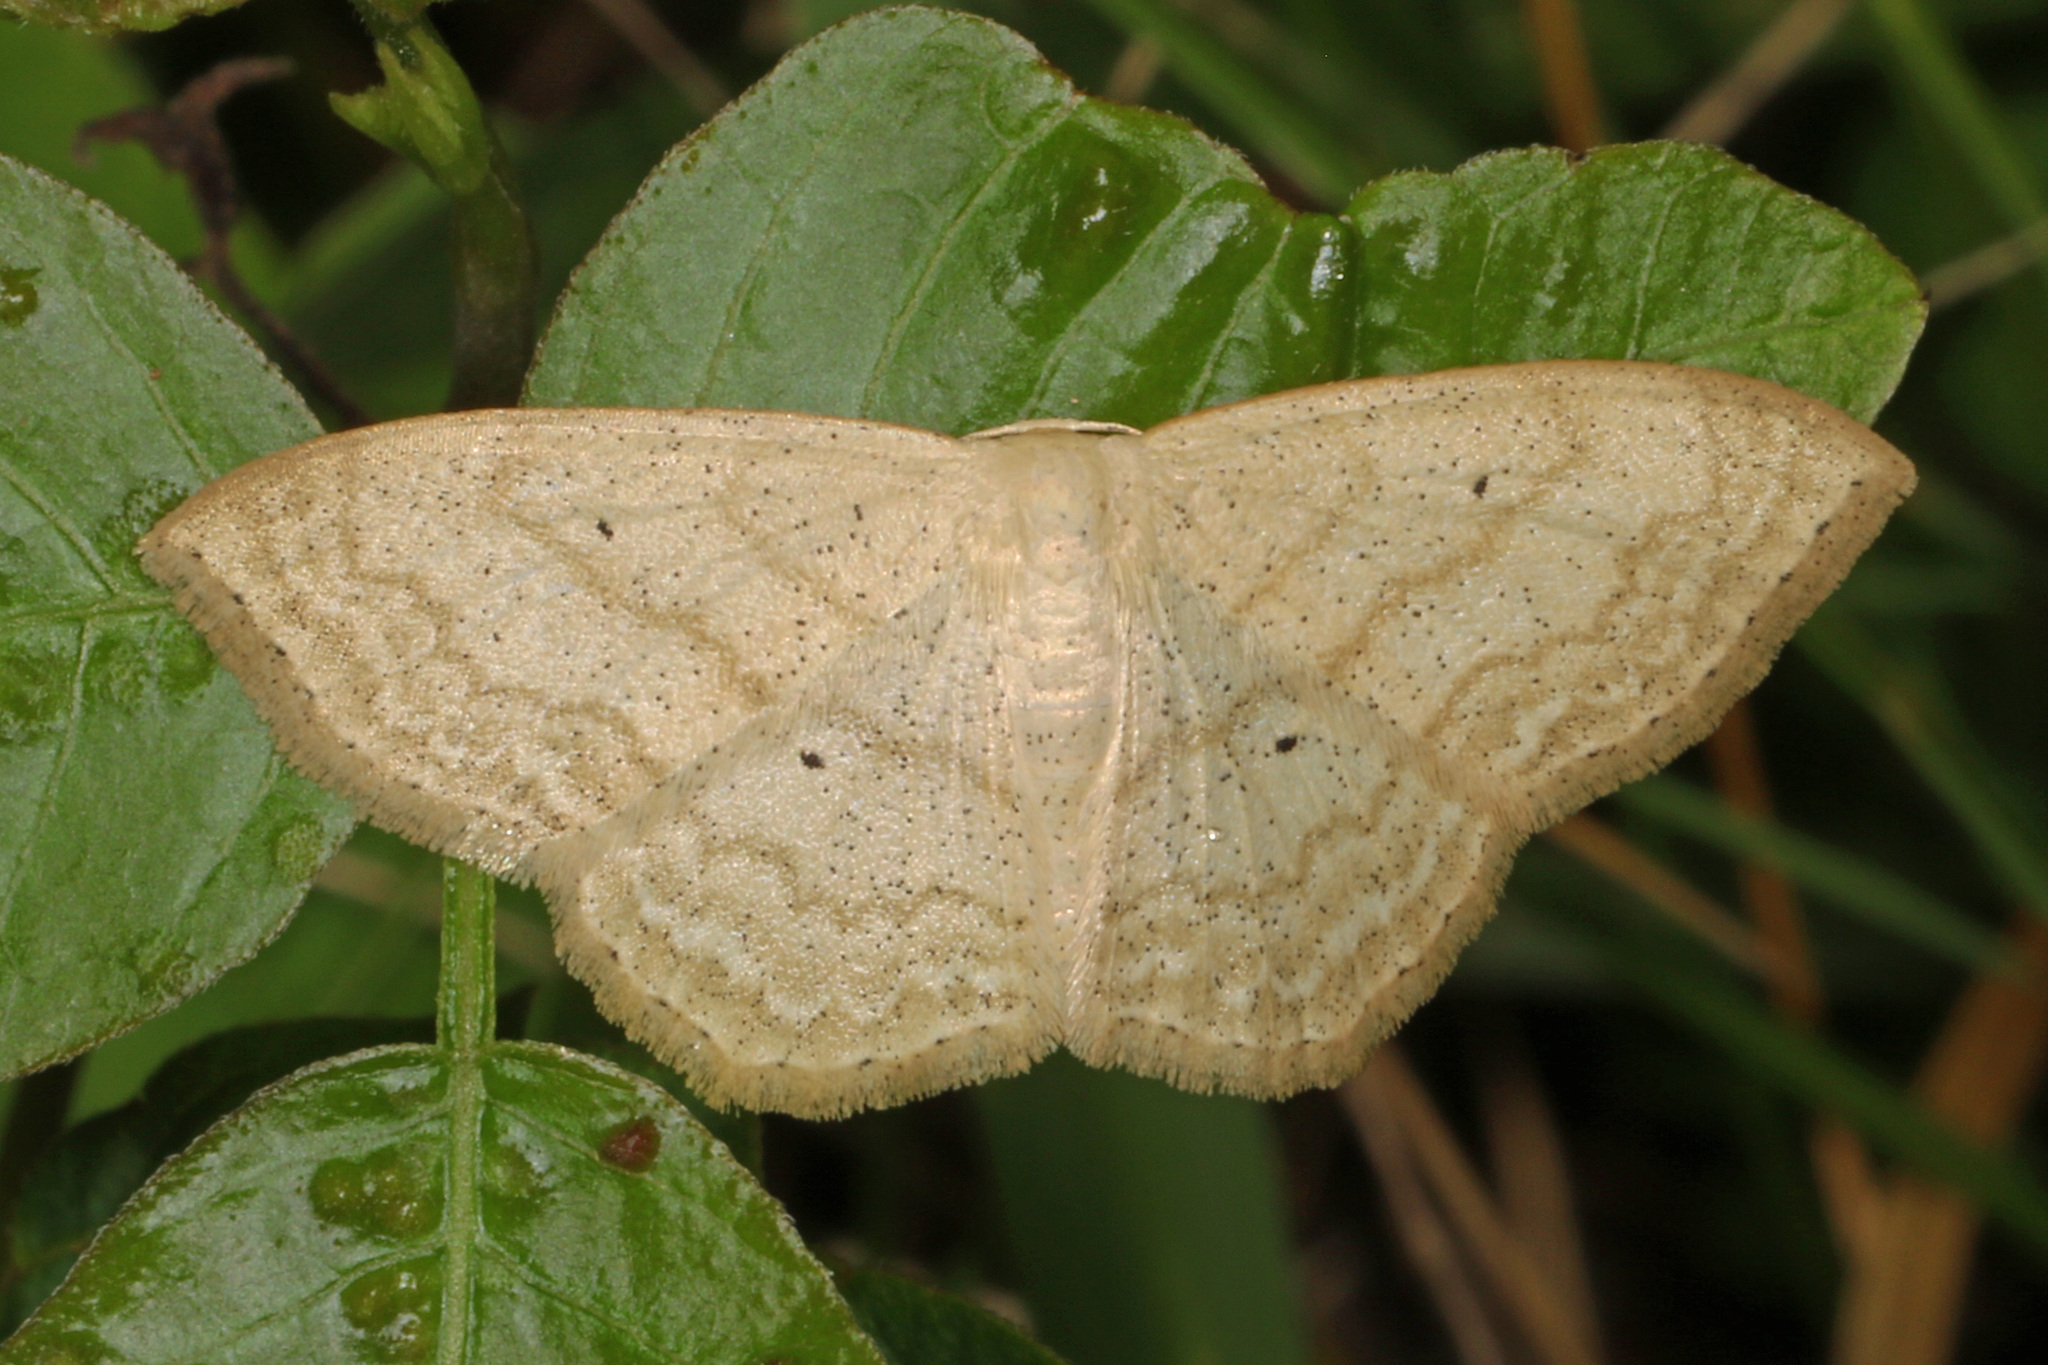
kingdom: Animalia
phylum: Arthropoda
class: Insecta
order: Lepidoptera
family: Geometridae
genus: Scopula
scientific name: Scopula limboundata
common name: Large lace border
